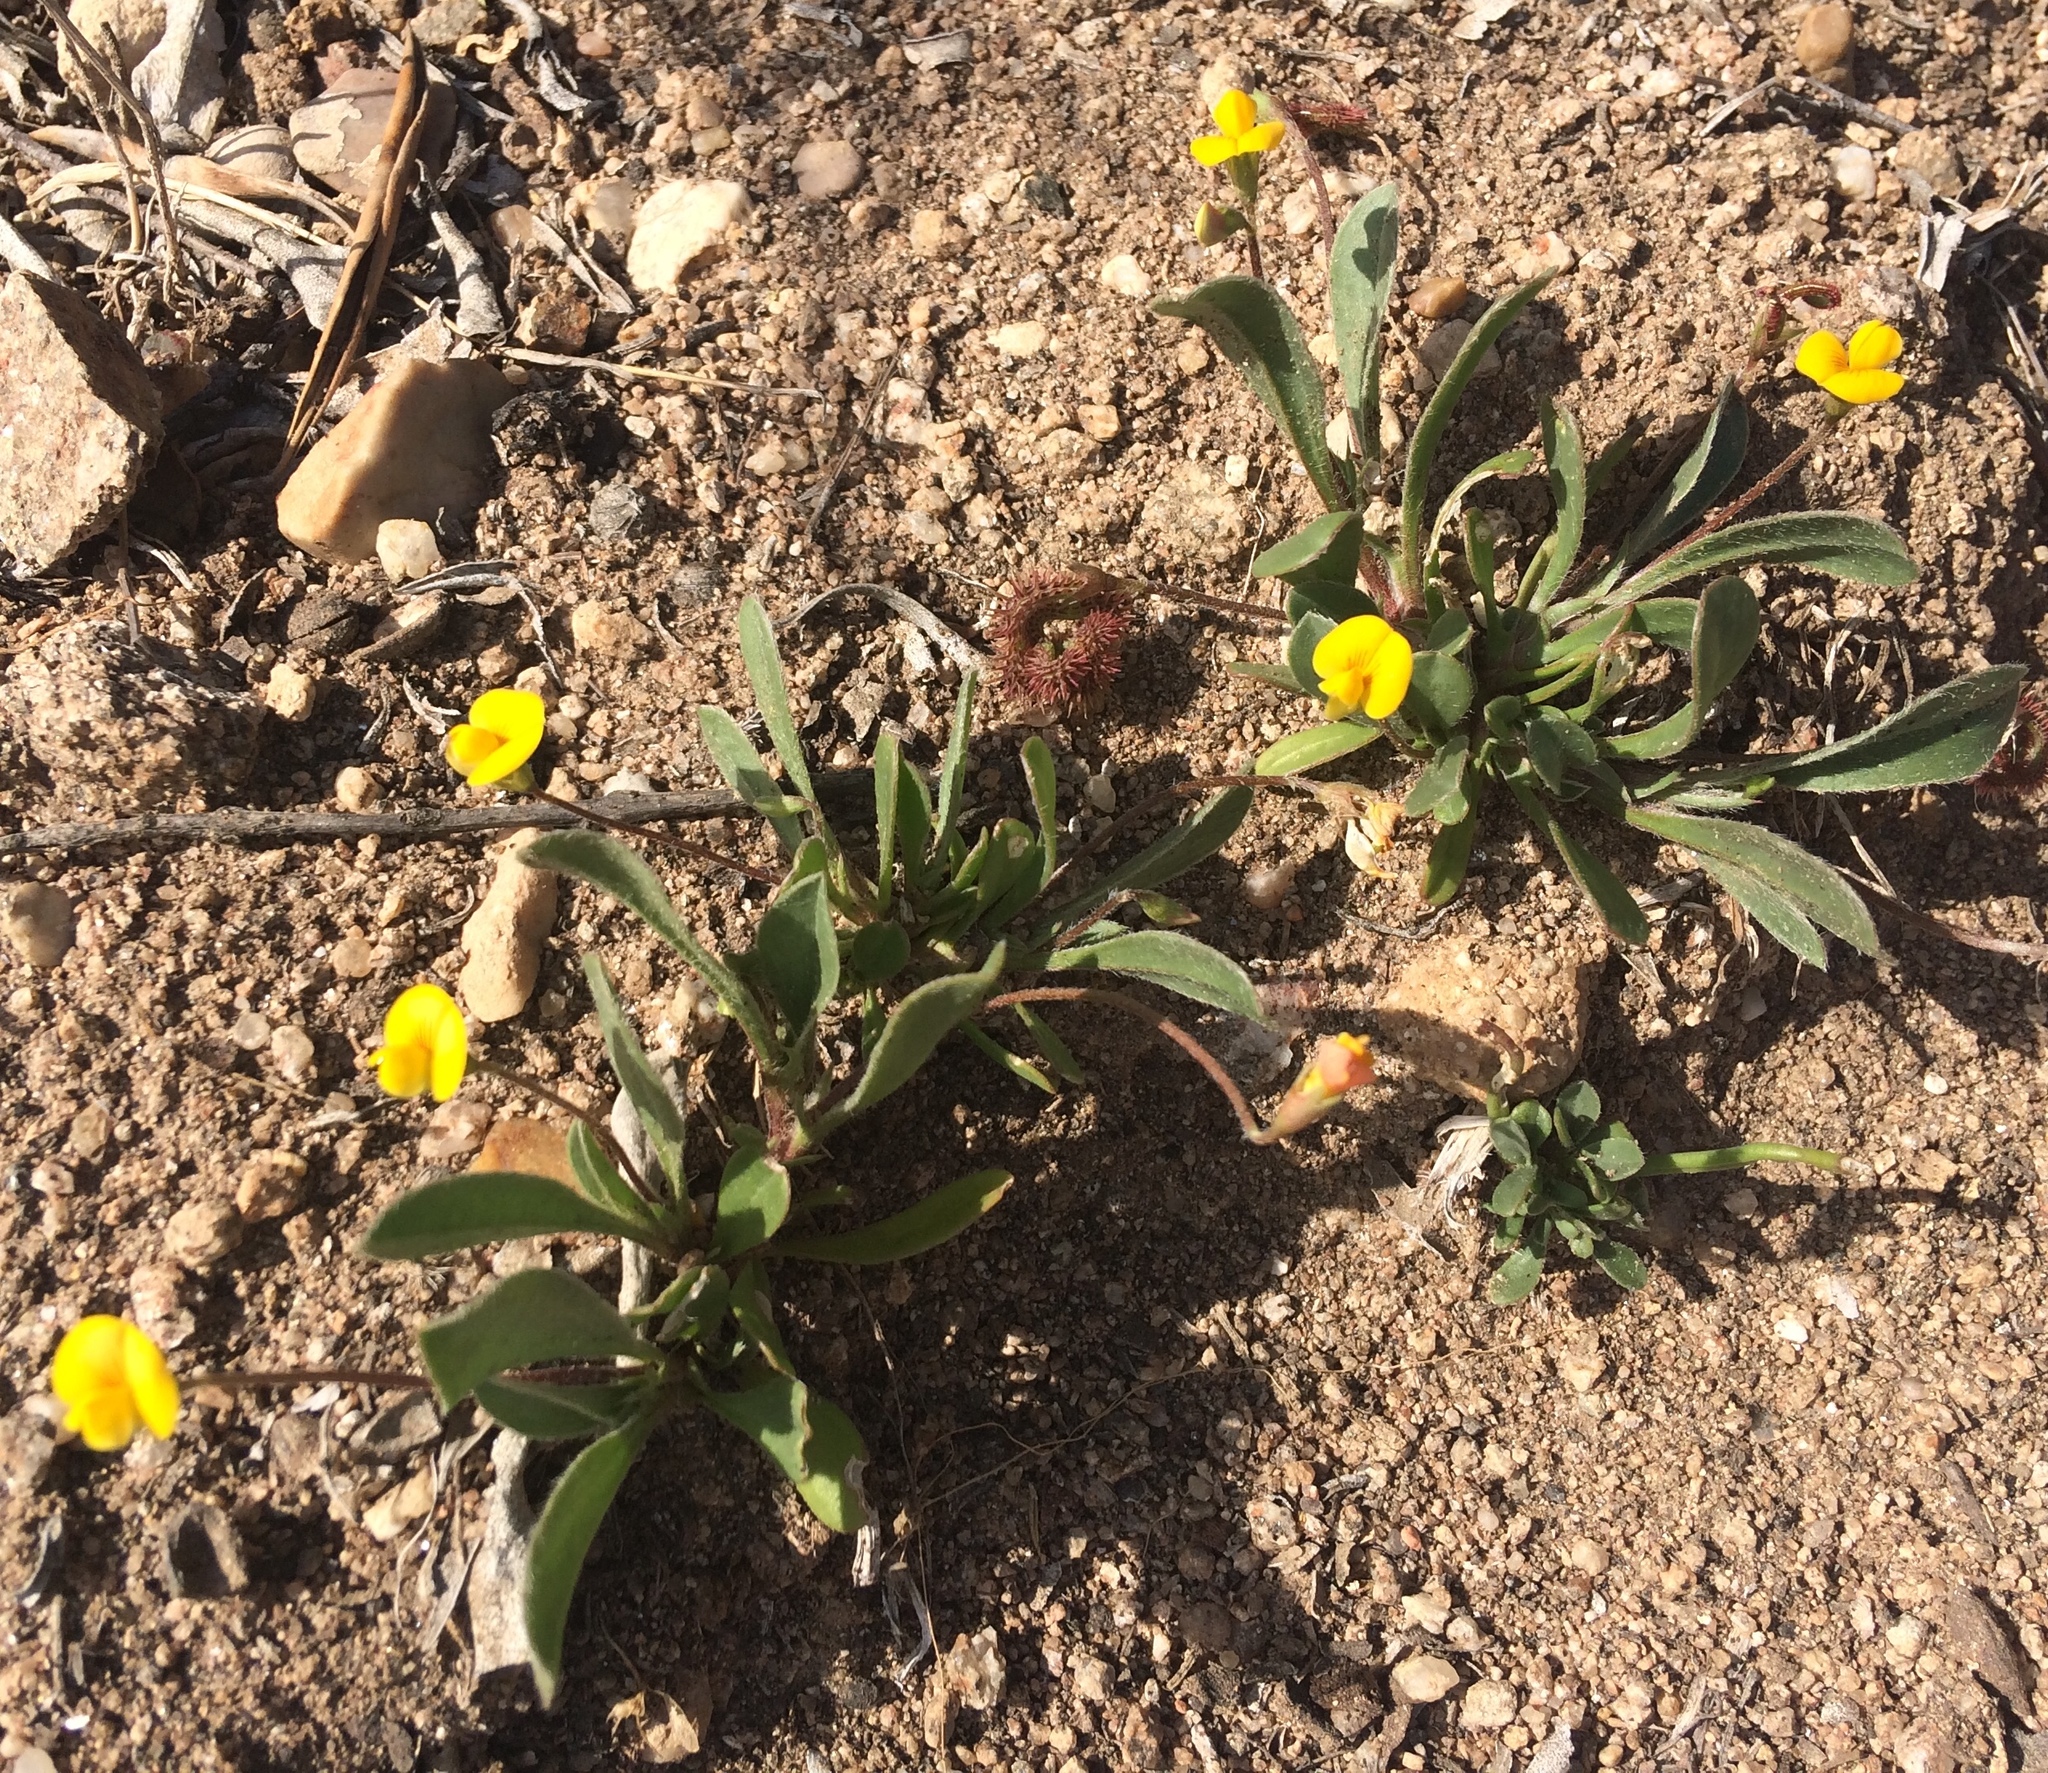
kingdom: Plantae
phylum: Tracheophyta
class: Magnoliopsida
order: Fabales
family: Fabaceae
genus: Scorpiurus
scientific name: Scorpiurus muricatus
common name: Caterpillar-plant
